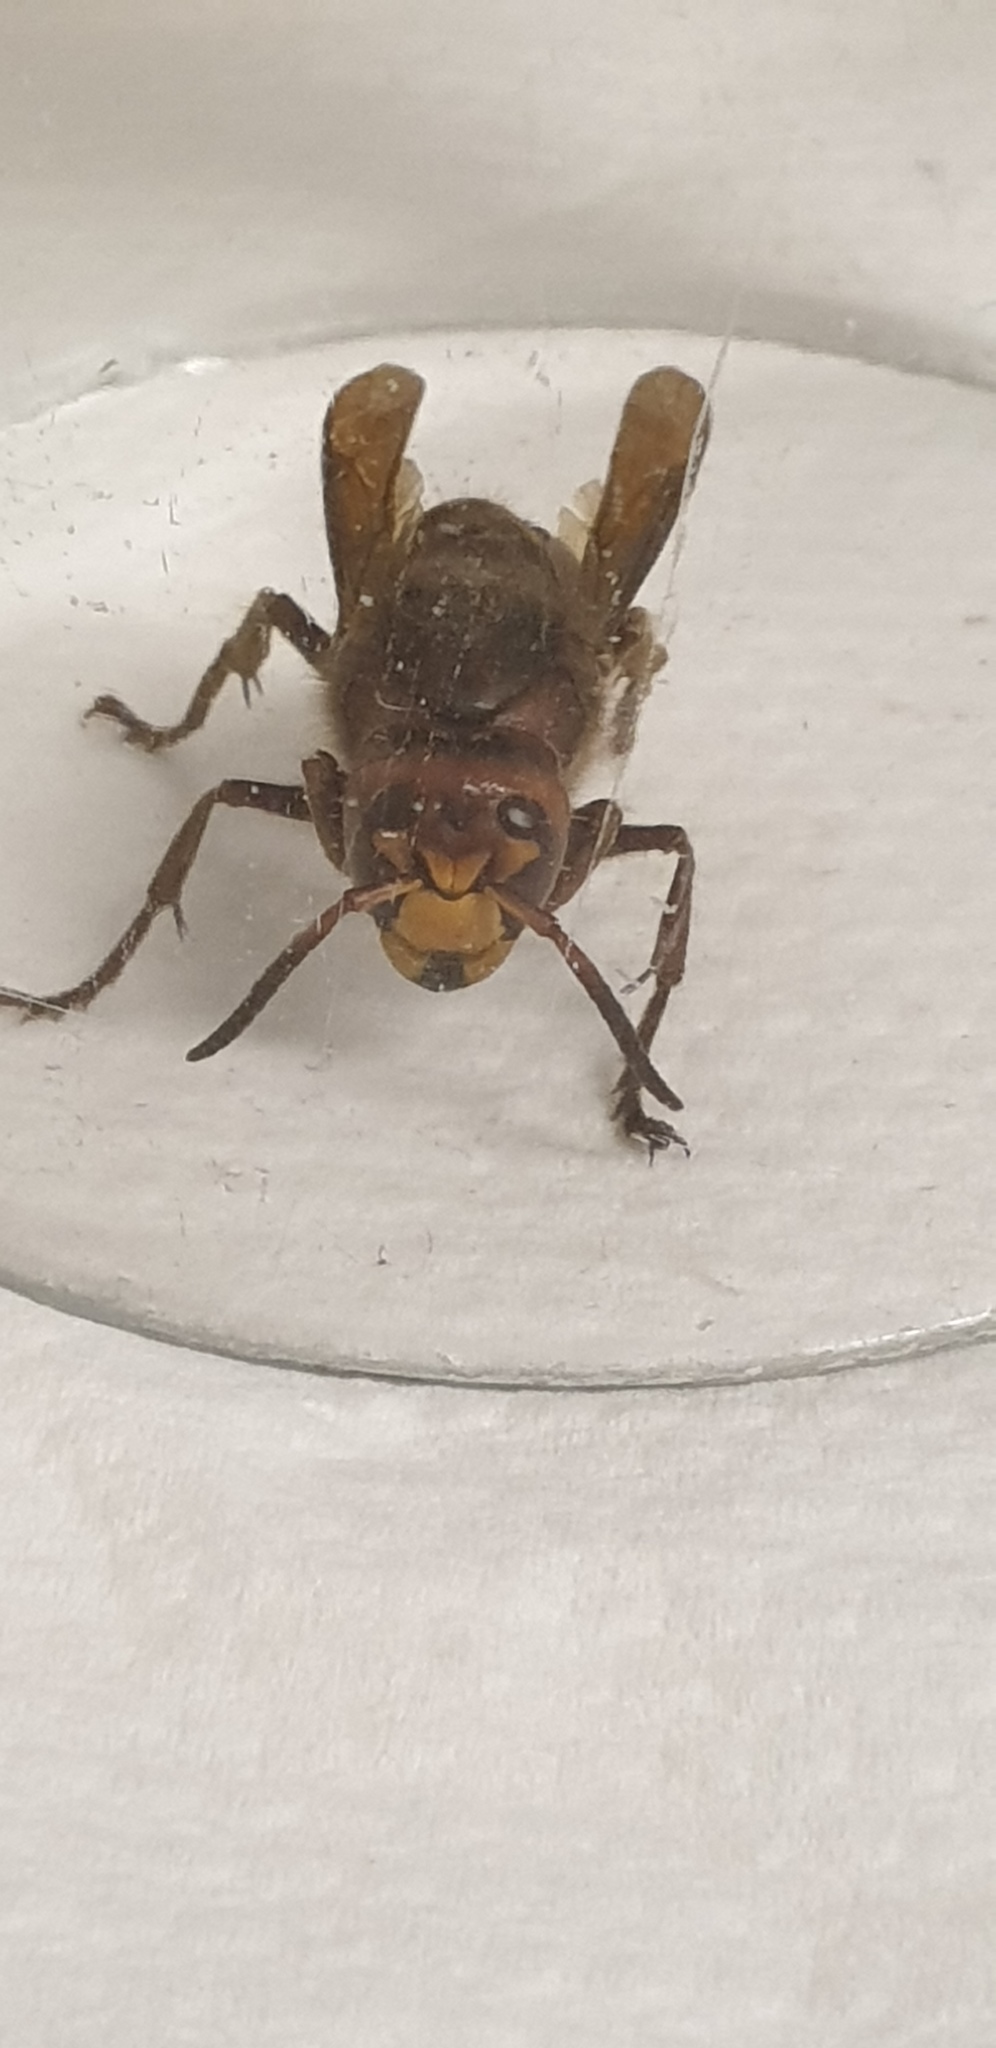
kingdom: Animalia
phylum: Arthropoda
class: Insecta
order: Hymenoptera
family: Vespidae
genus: Vespa
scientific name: Vespa crabro
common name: Hornet
